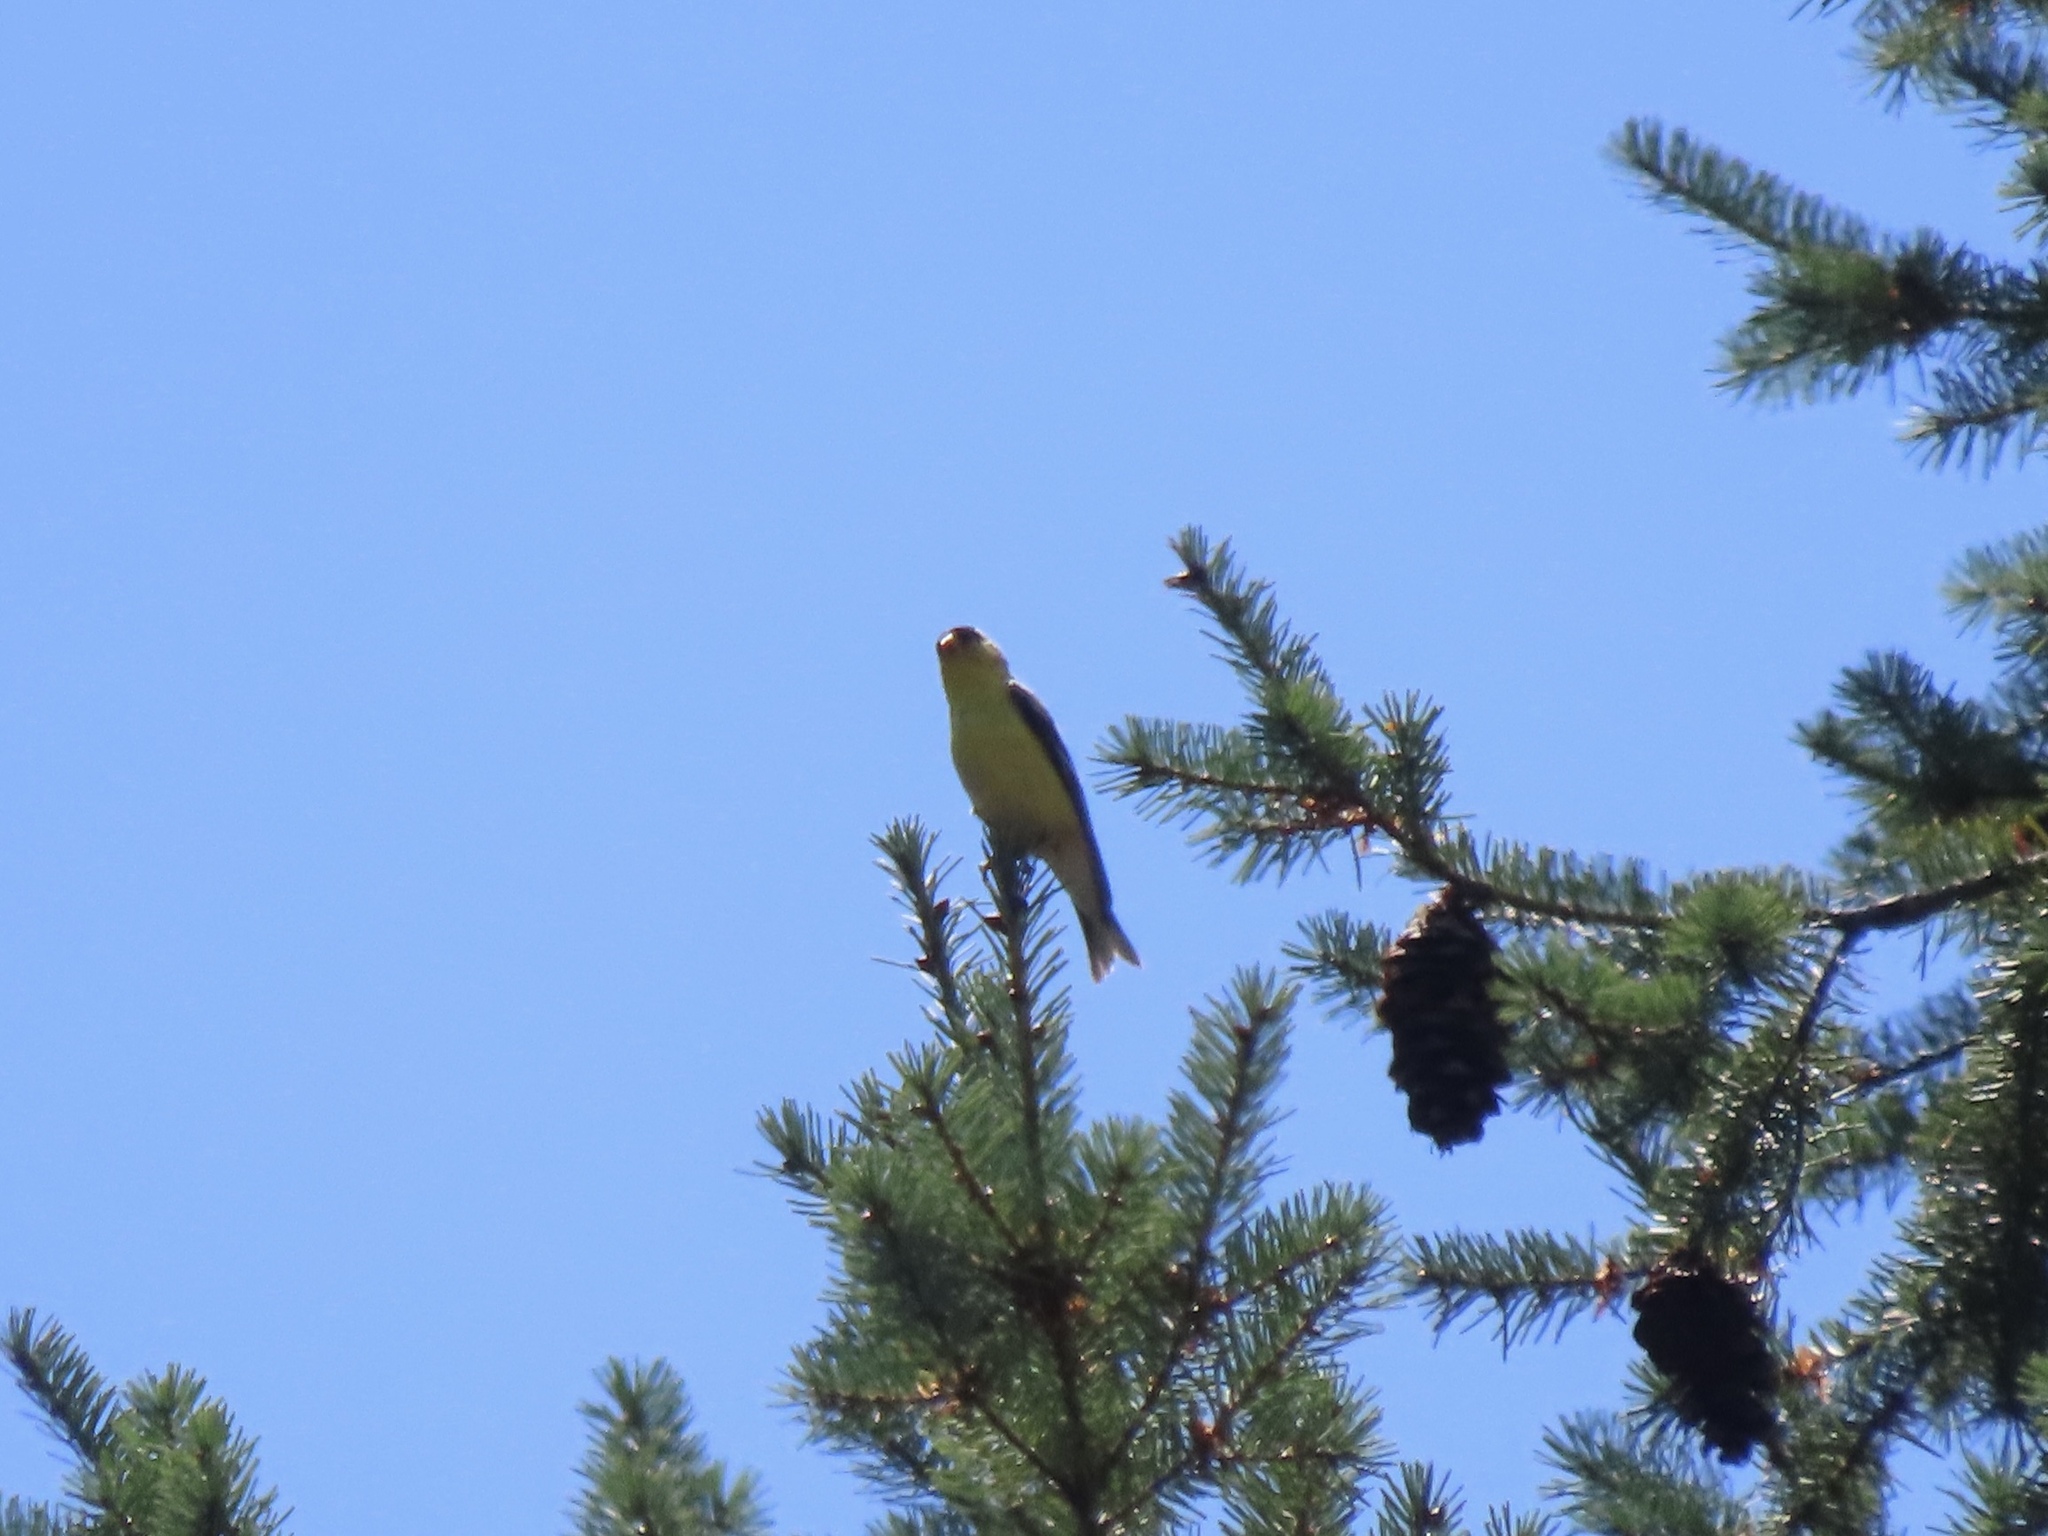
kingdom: Animalia
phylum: Chordata
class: Aves
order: Passeriformes
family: Fringillidae
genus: Spinus
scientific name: Spinus tristis
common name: American goldfinch
